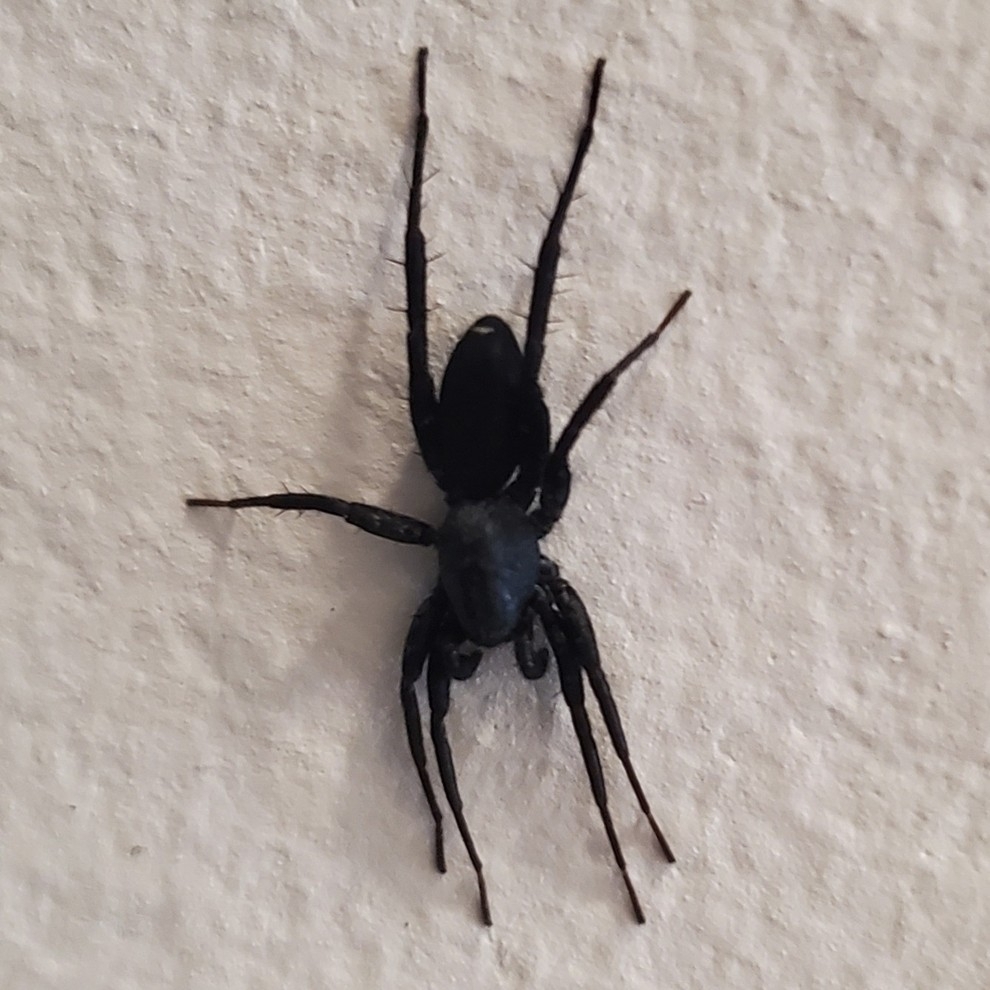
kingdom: Animalia
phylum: Arthropoda
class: Arachnida
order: Araneae
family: Corinnidae
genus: Castianeira
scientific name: Castianeira
